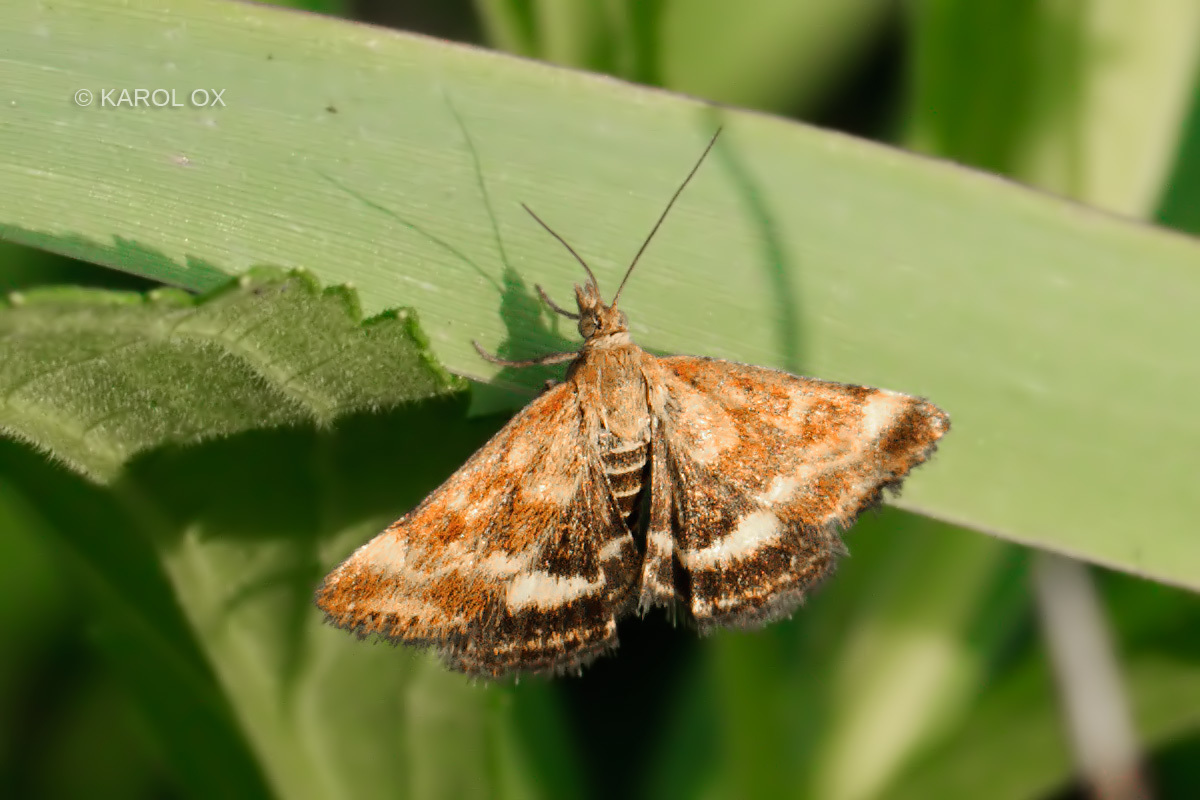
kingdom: Animalia
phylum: Arthropoda
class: Insecta
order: Lepidoptera
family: Crambidae
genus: Pyrausta
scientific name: Pyrausta despicata
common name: Straw-barred pearl
